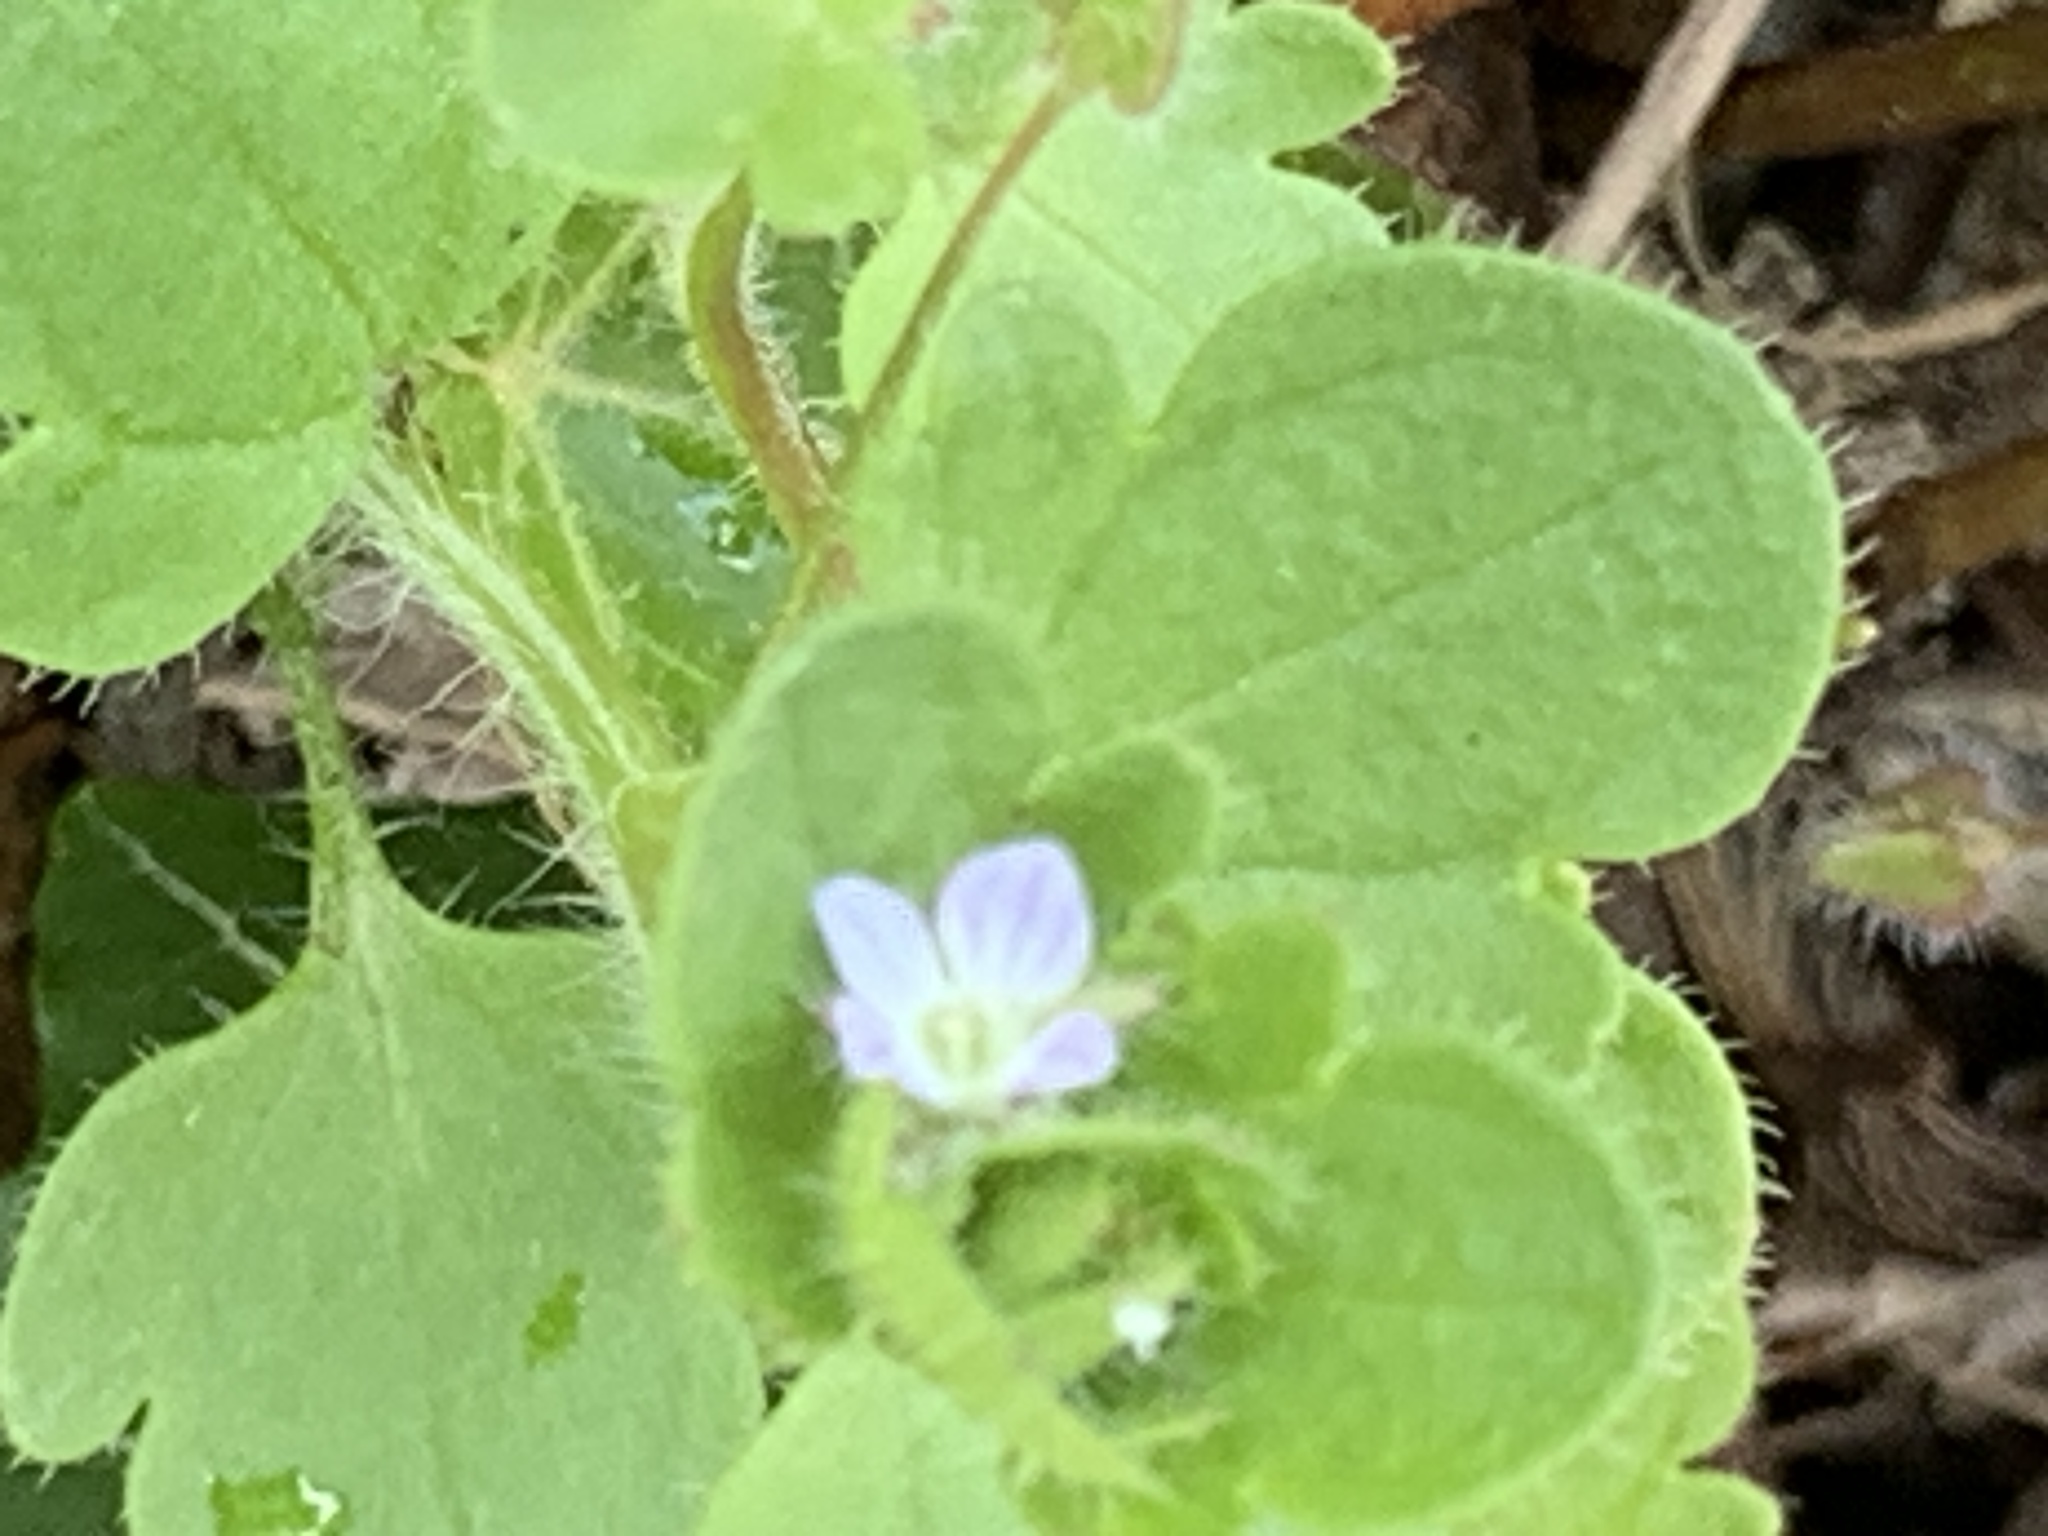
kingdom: Plantae
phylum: Tracheophyta
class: Magnoliopsida
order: Lamiales
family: Plantaginaceae
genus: Veronica
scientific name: Veronica sublobata
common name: False ivy-leaved speedwell
